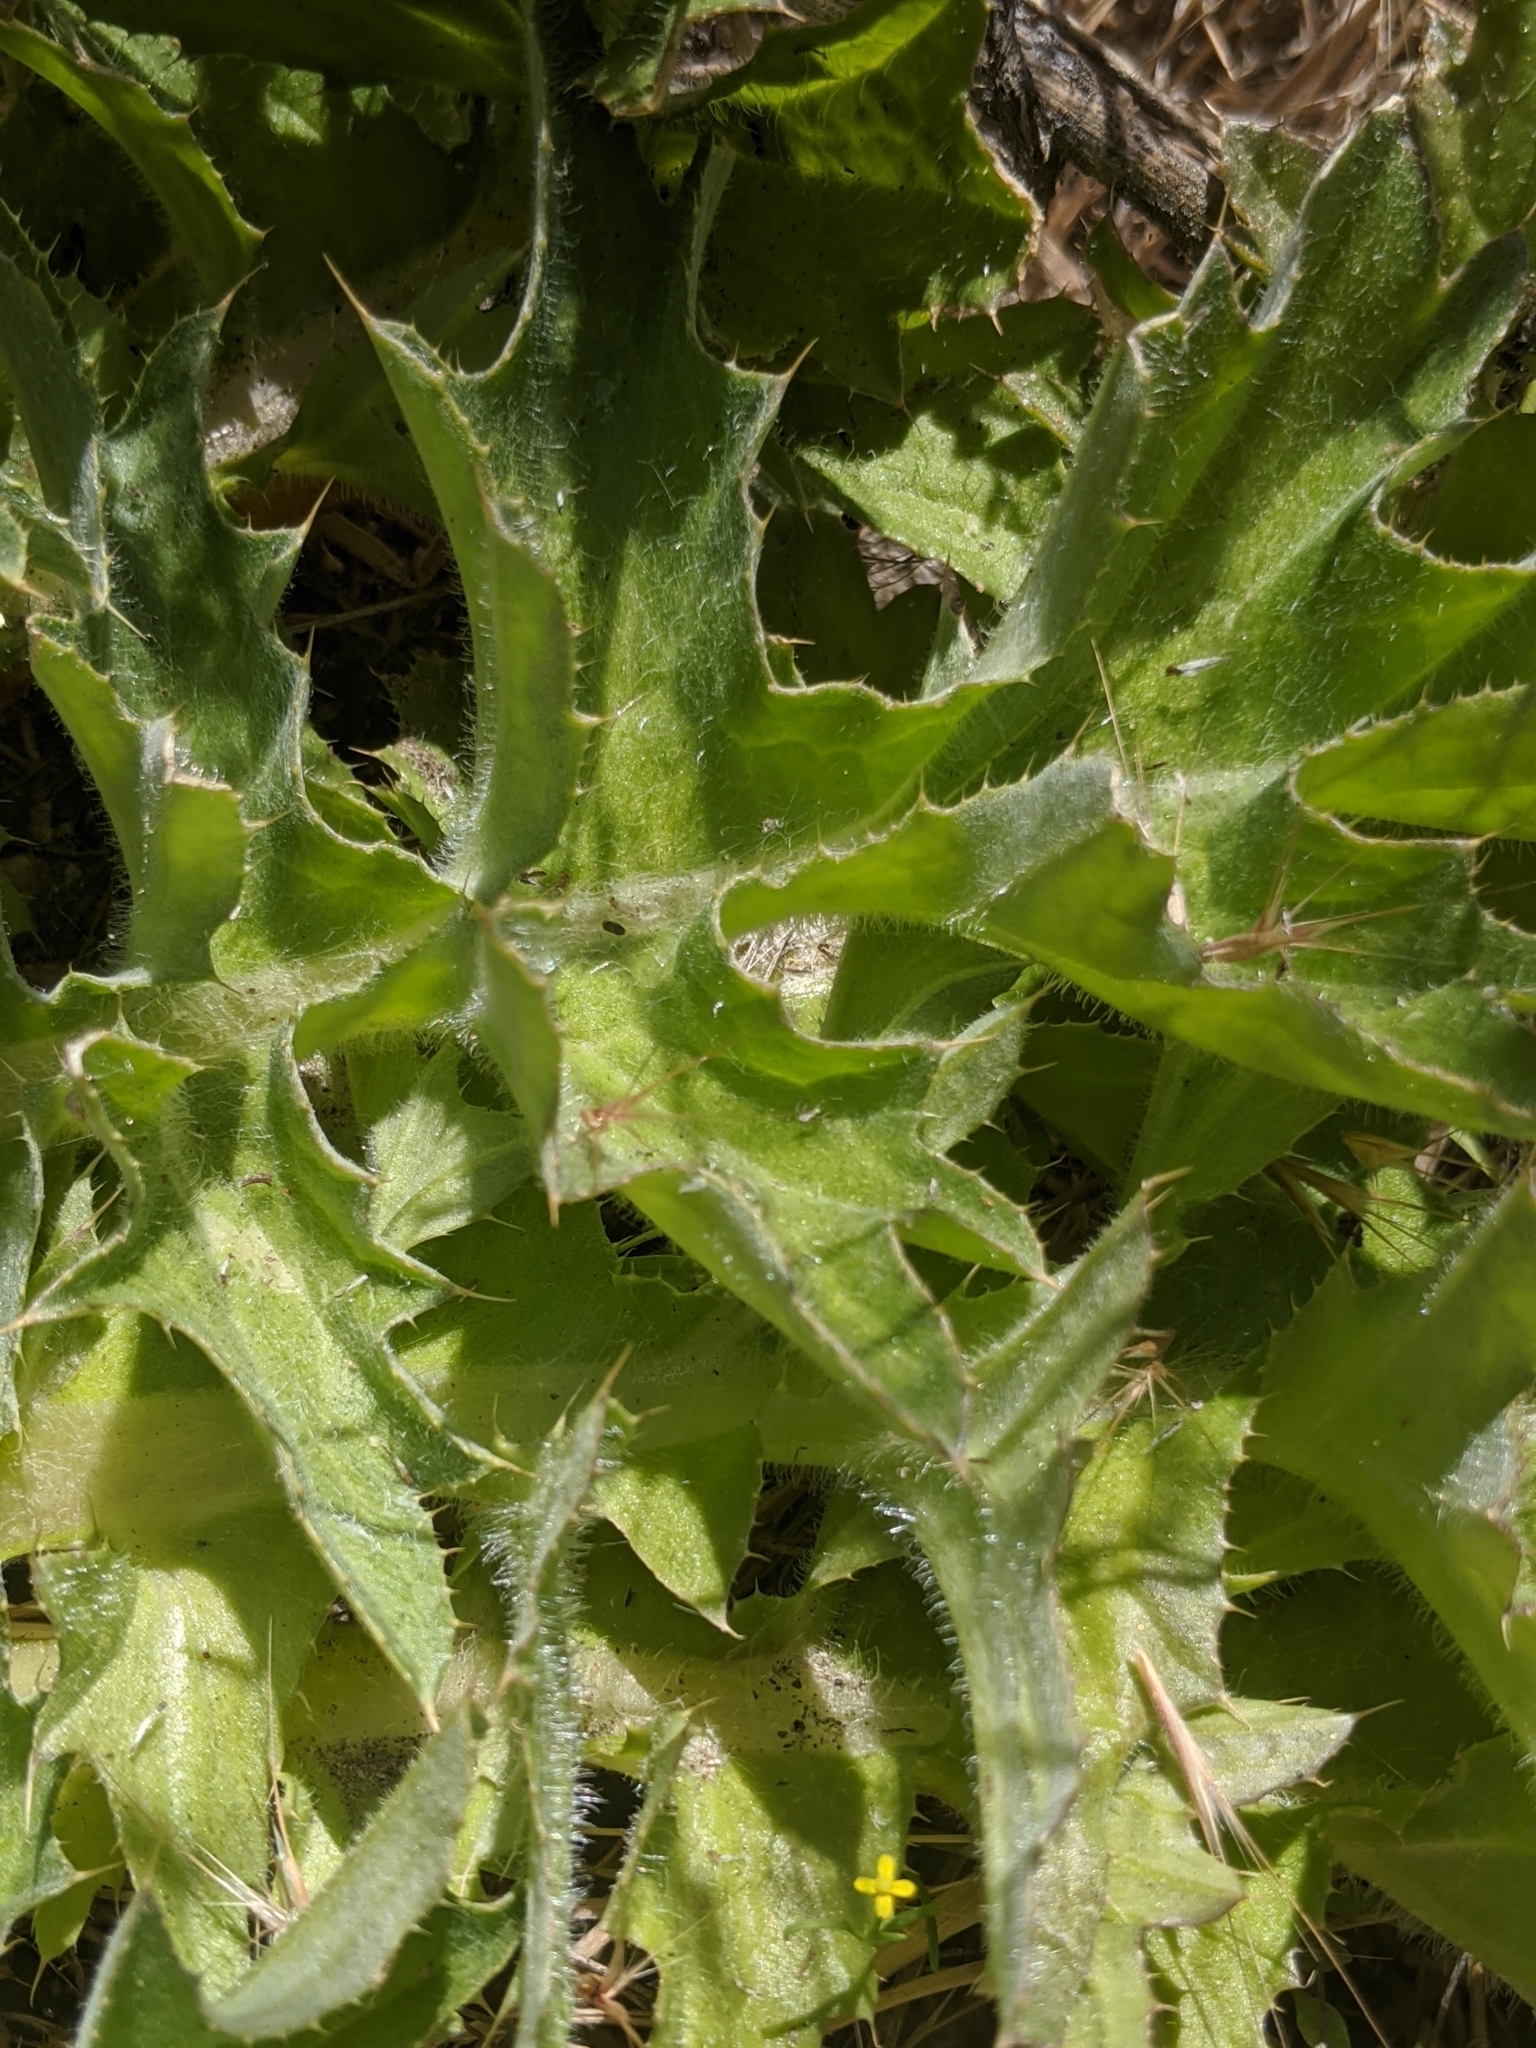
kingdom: Plantae
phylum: Tracheophyta
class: Magnoliopsida
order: Asterales
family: Asteraceae
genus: Cirsium
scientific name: Cirsium scariosum
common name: Meadow thistle
